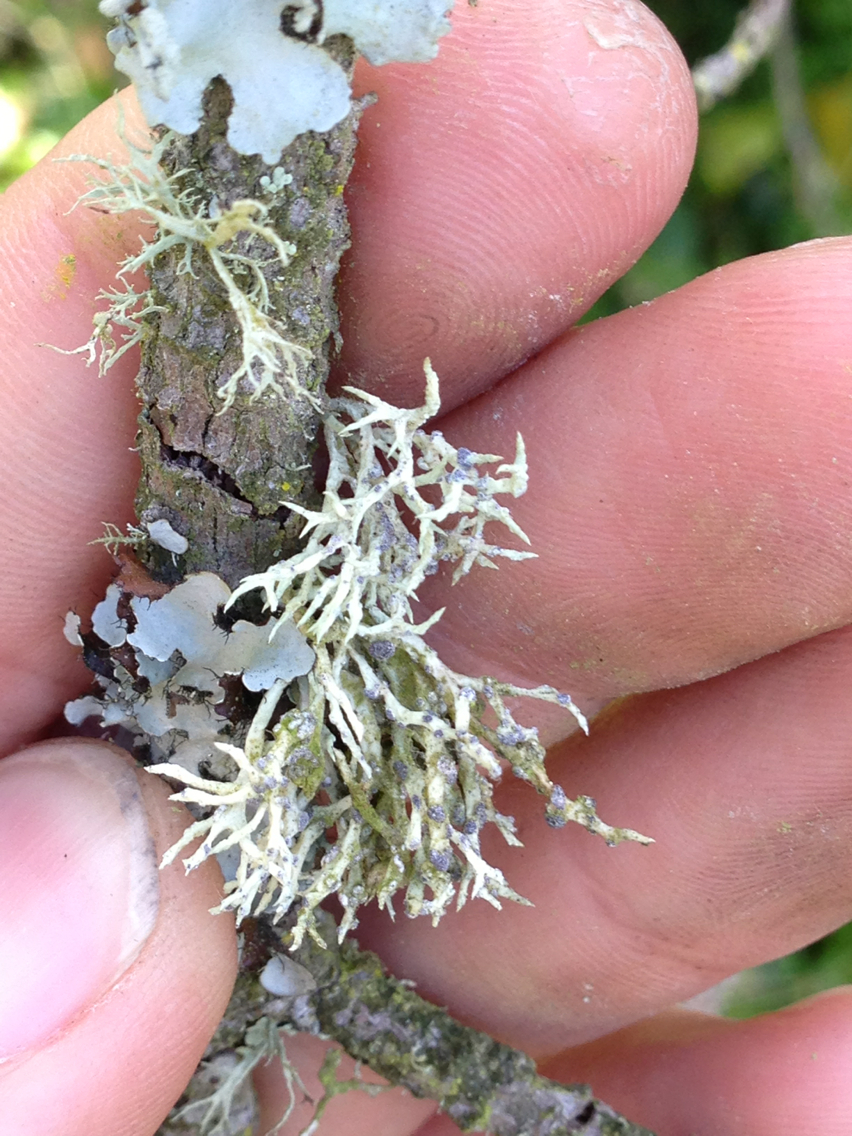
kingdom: Fungi
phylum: Ascomycota
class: Lecanoromycetes
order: Lecanorales
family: Ramalinaceae
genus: Niebla
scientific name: Niebla cephalota
